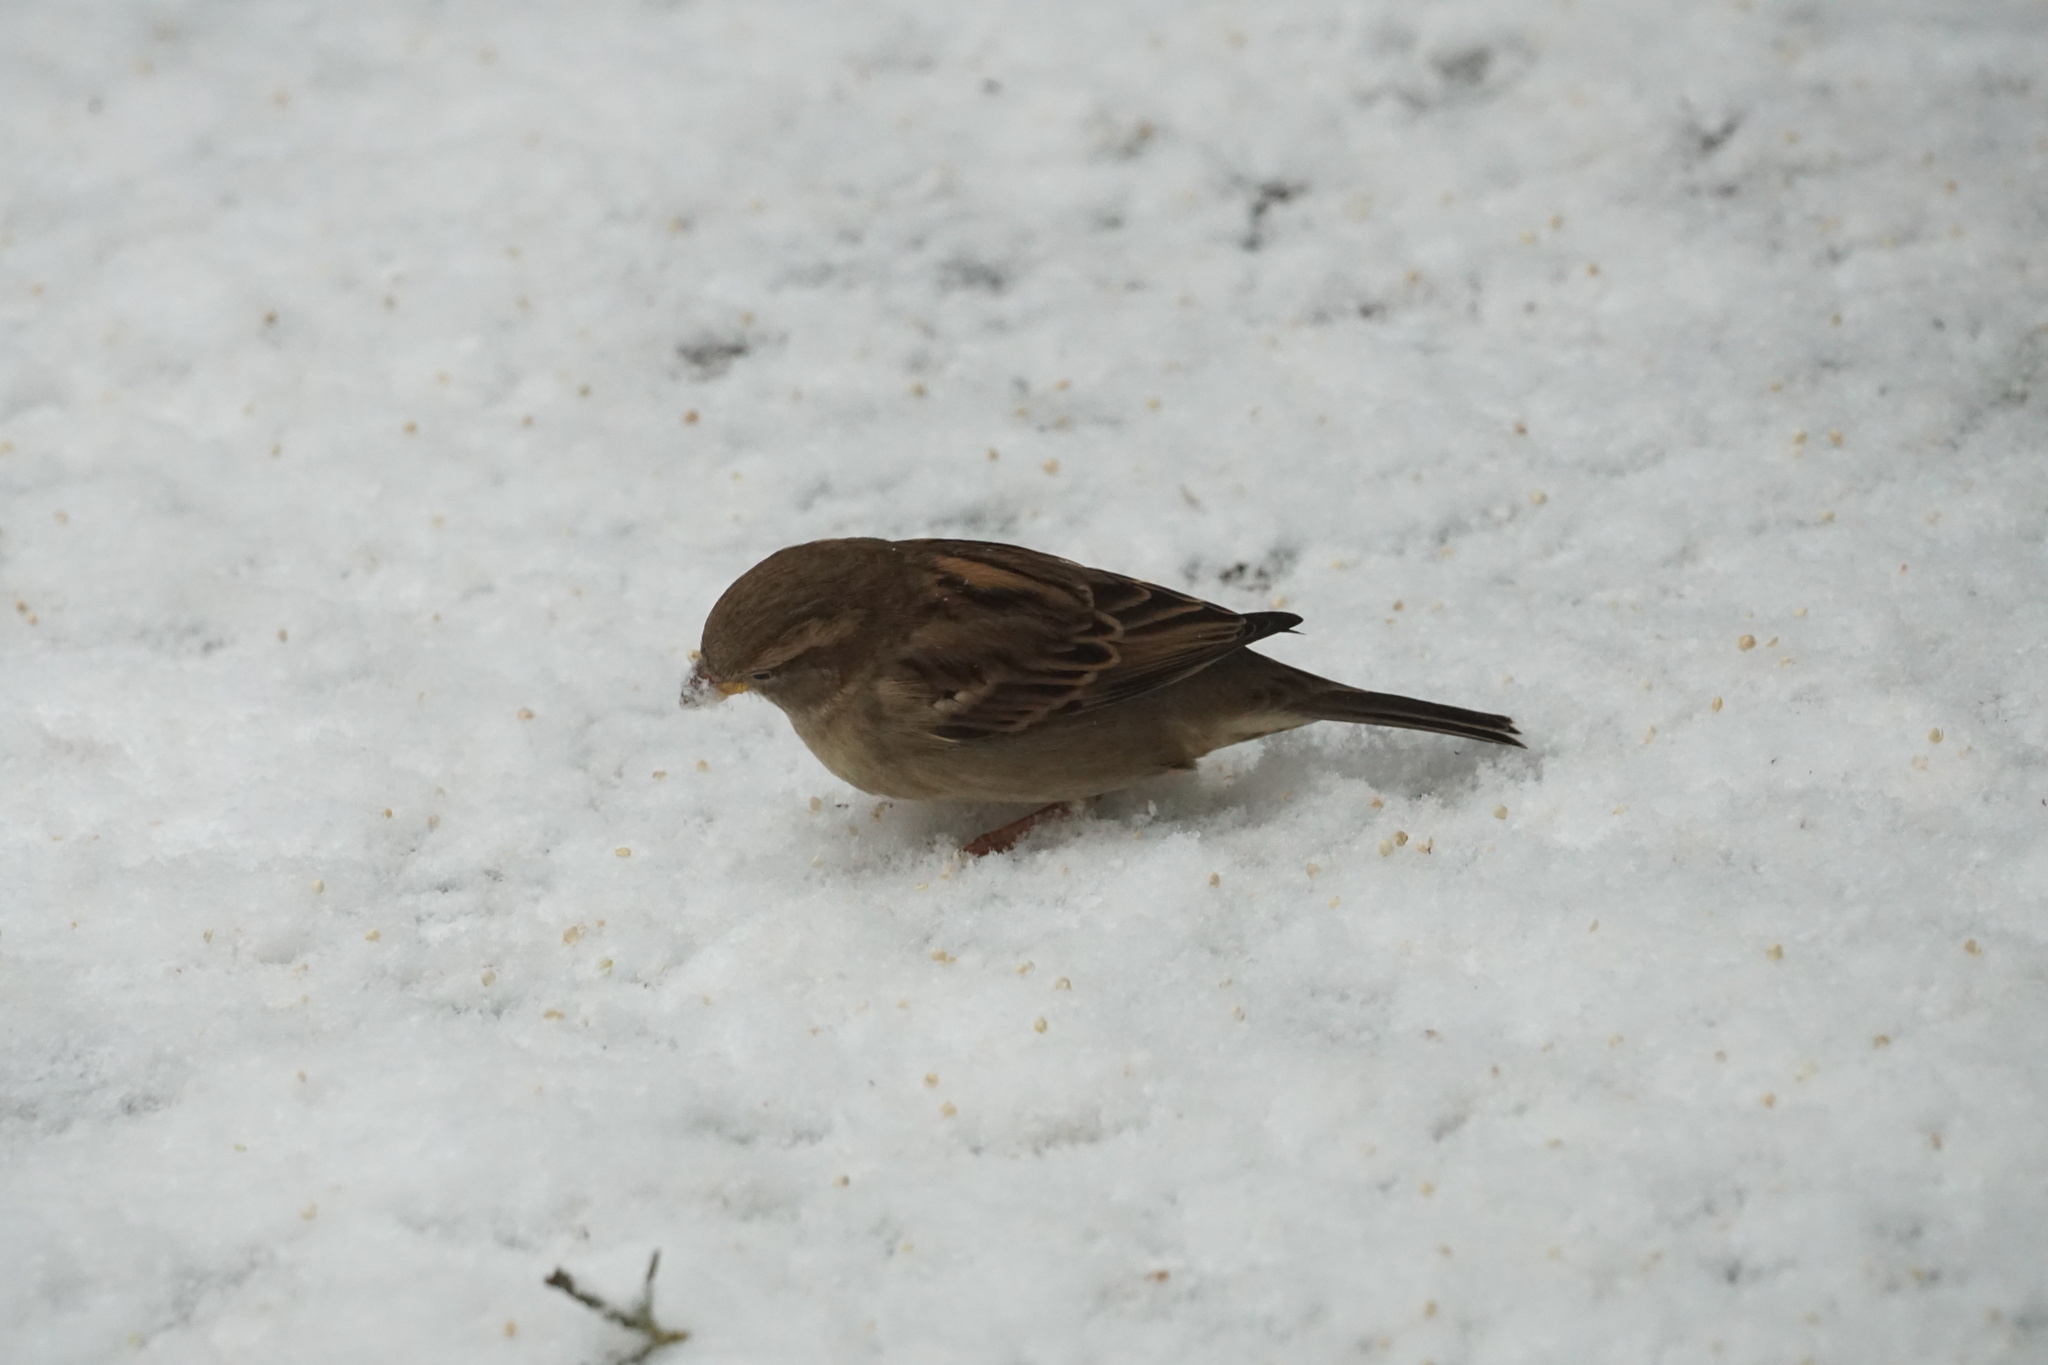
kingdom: Animalia
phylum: Chordata
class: Aves
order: Passeriformes
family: Passeridae
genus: Passer
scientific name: Passer domesticus
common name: House sparrow
